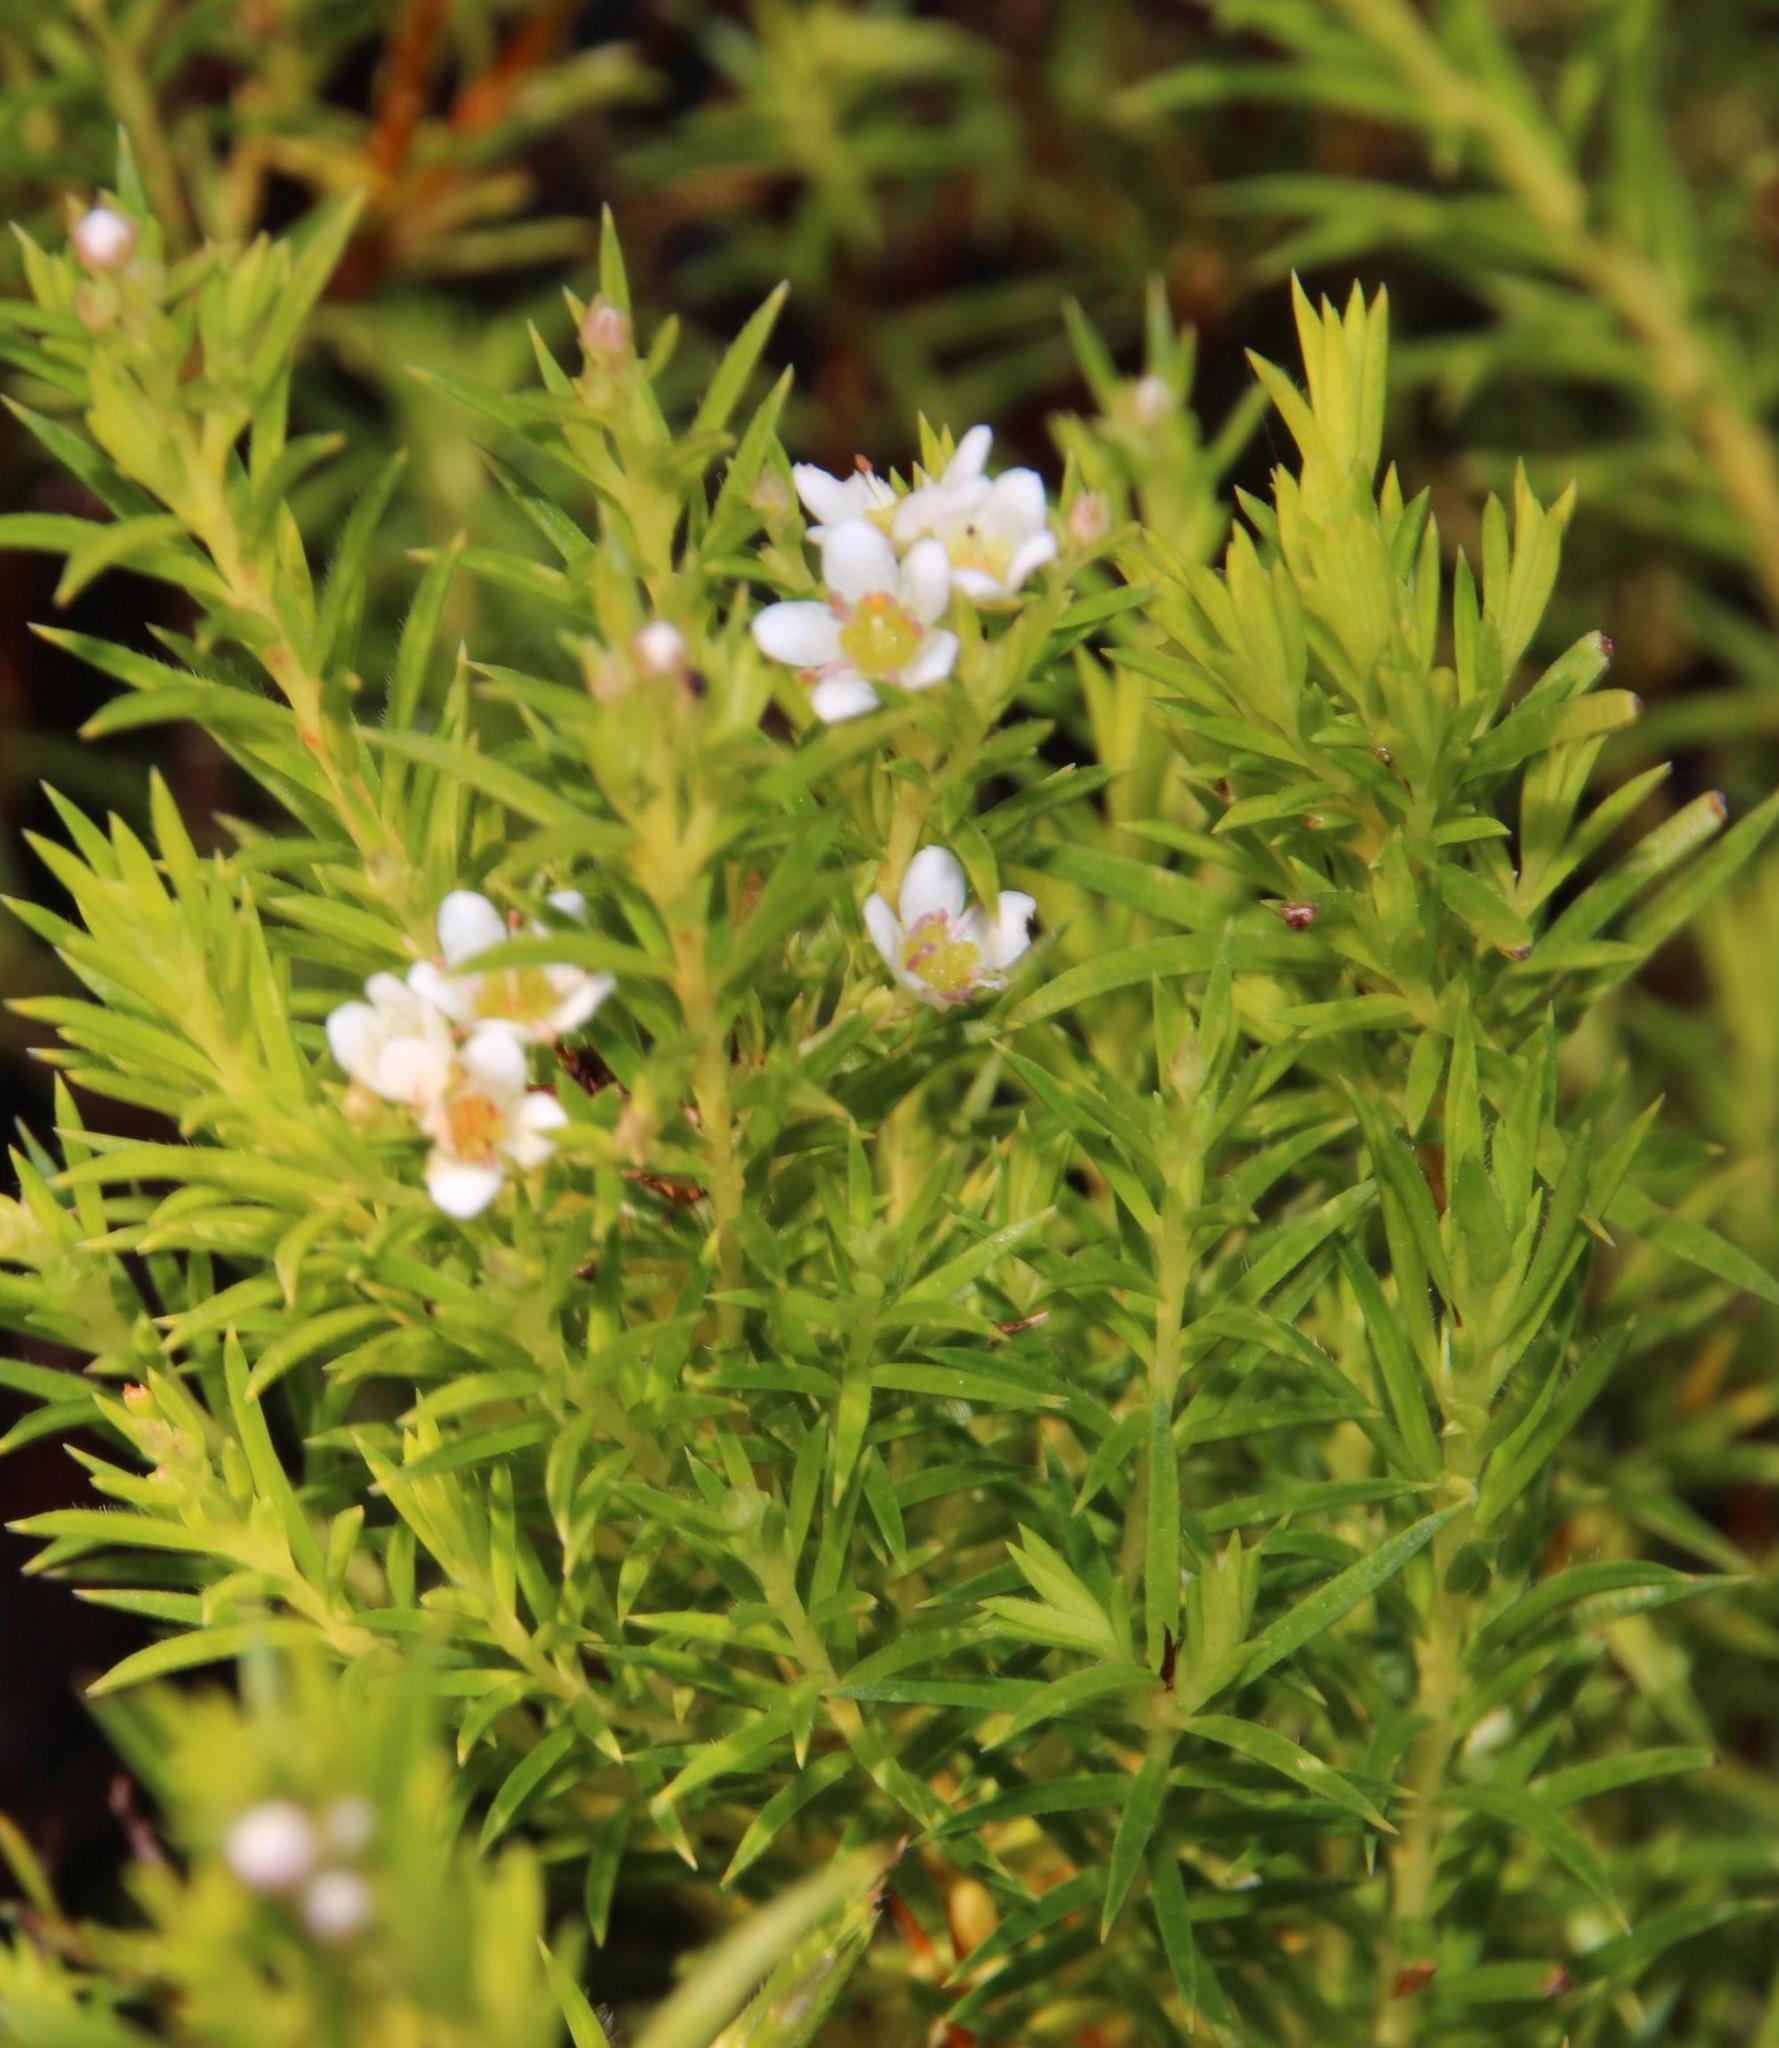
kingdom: Plantae
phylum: Tracheophyta
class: Magnoliopsida
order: Sapindales
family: Rutaceae
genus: Diosma
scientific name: Diosma hirsuta
